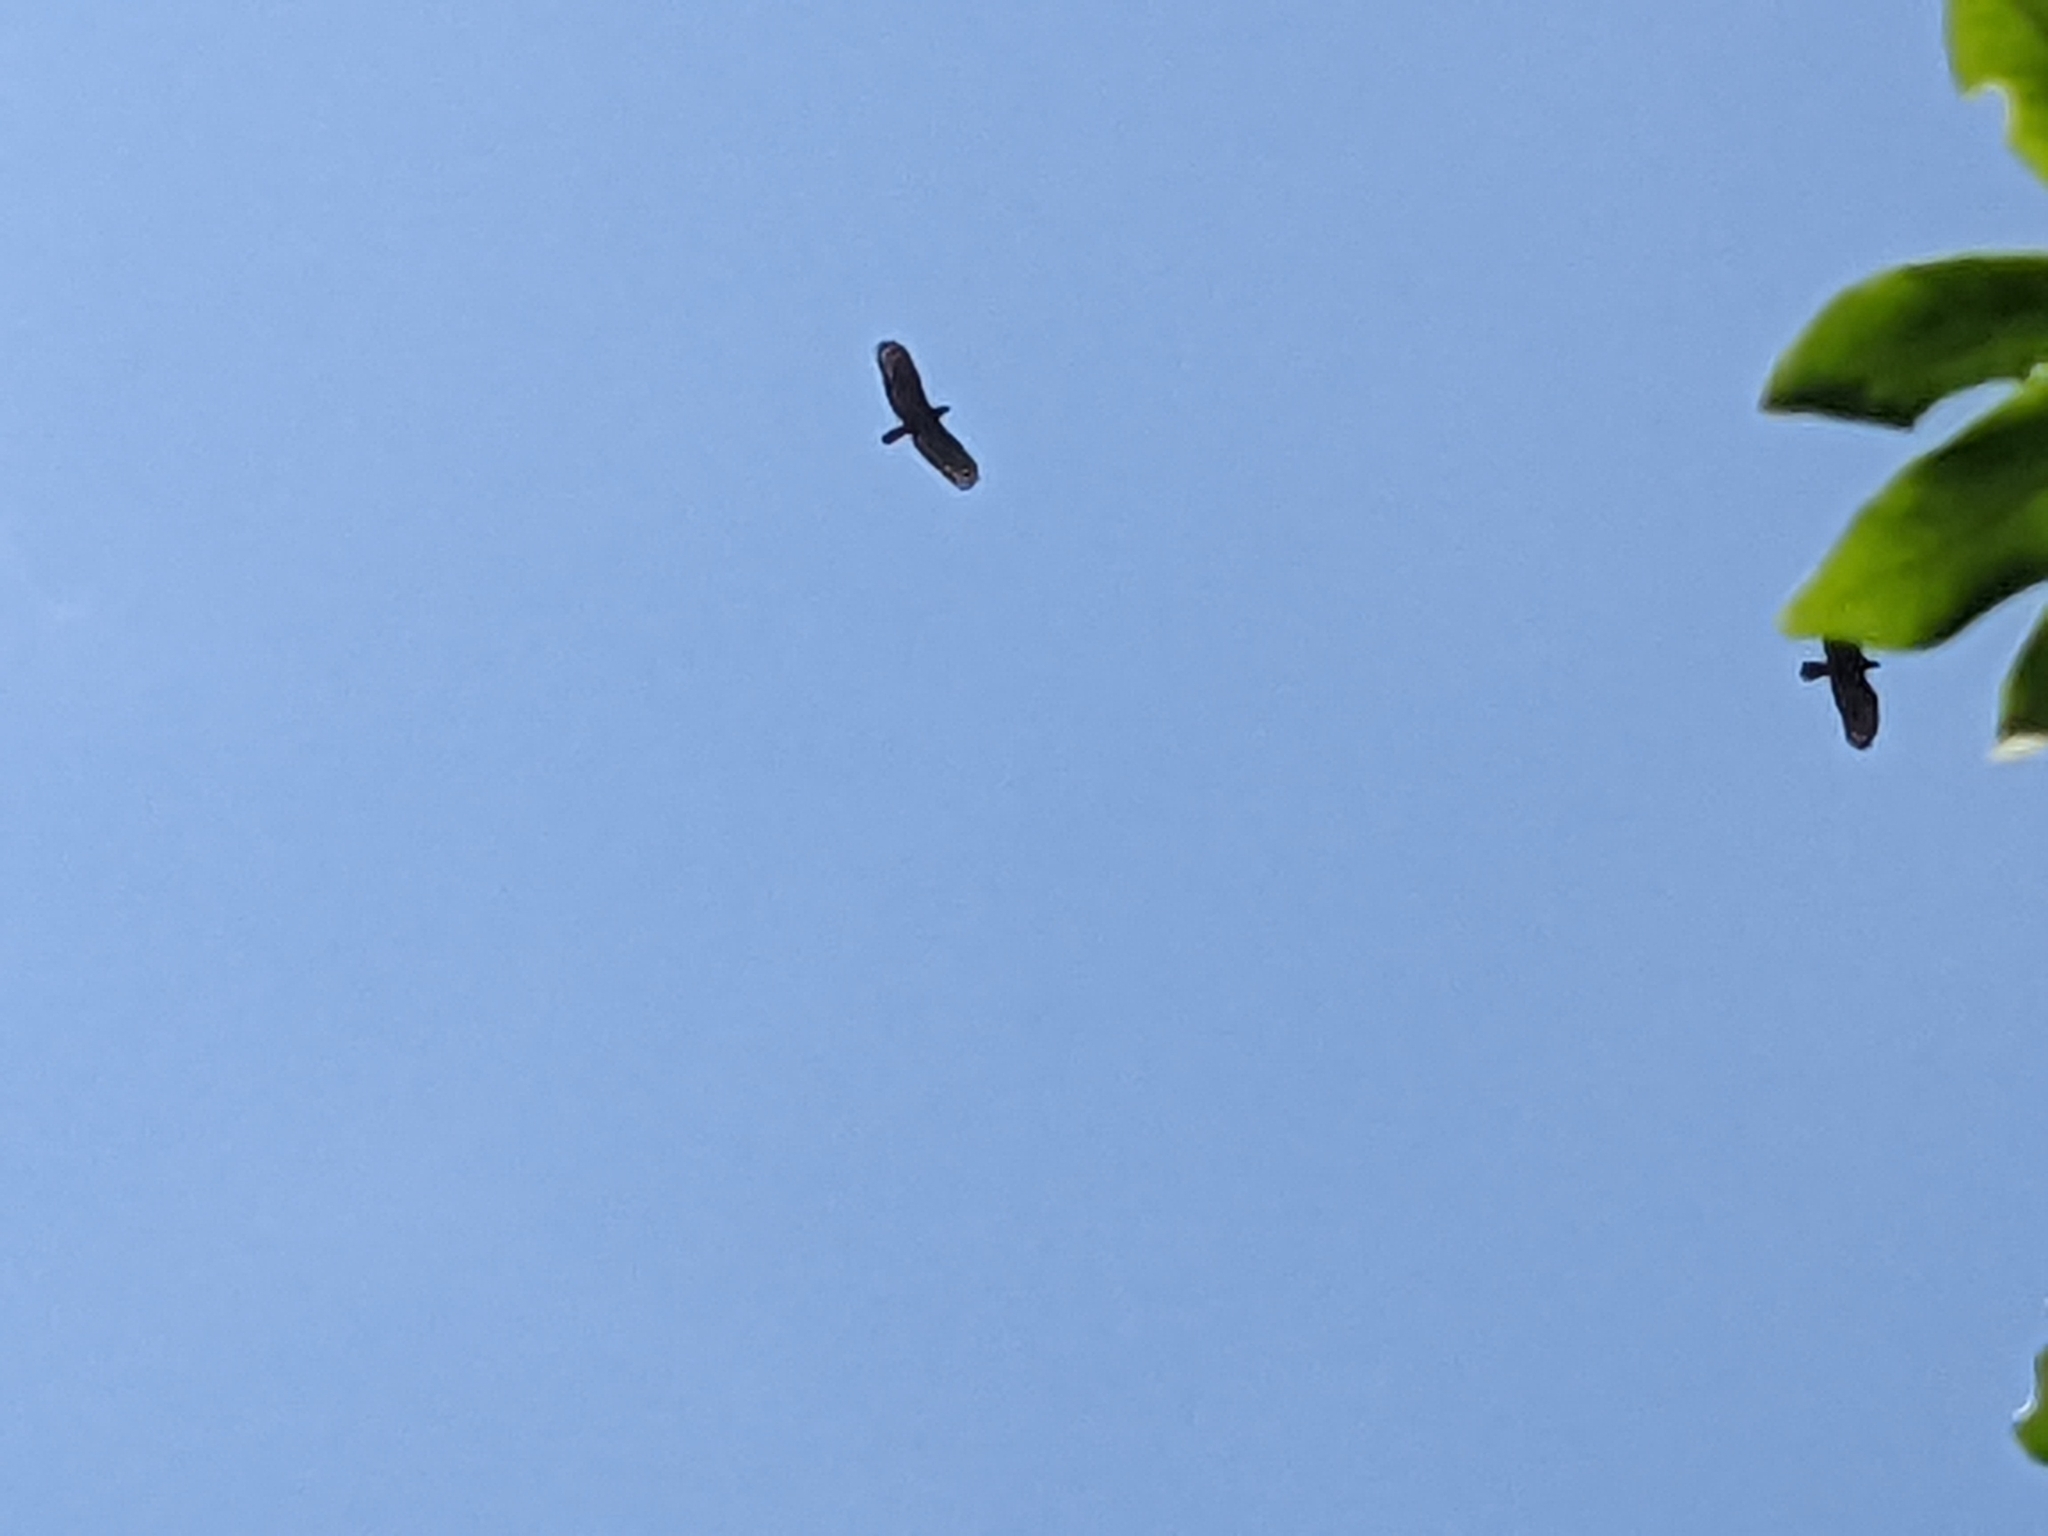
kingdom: Animalia
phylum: Chordata
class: Aves
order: Accipitriformes
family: Accipitridae
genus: Spilornis
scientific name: Spilornis cheela
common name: Crested serpent eagle
